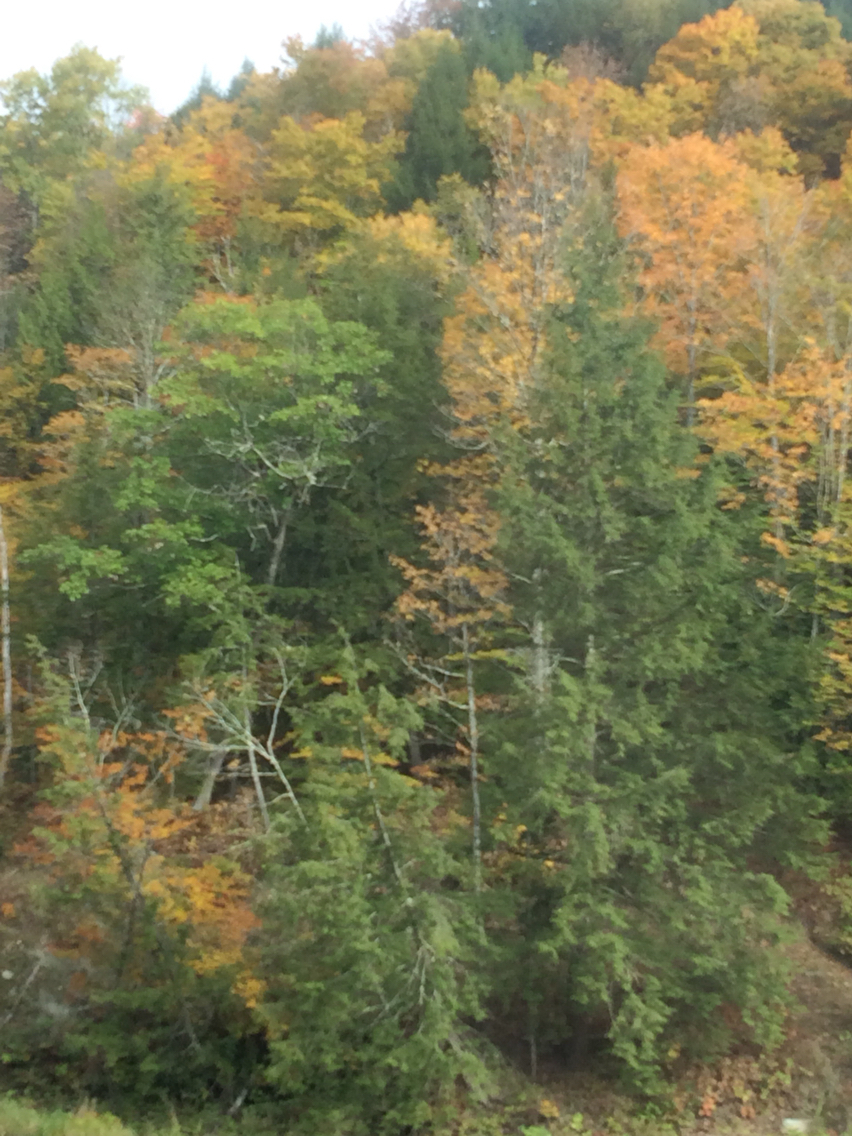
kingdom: Plantae
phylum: Tracheophyta
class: Pinopsida
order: Pinales
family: Pinaceae
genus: Tsuga
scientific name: Tsuga canadensis
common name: Eastern hemlock
